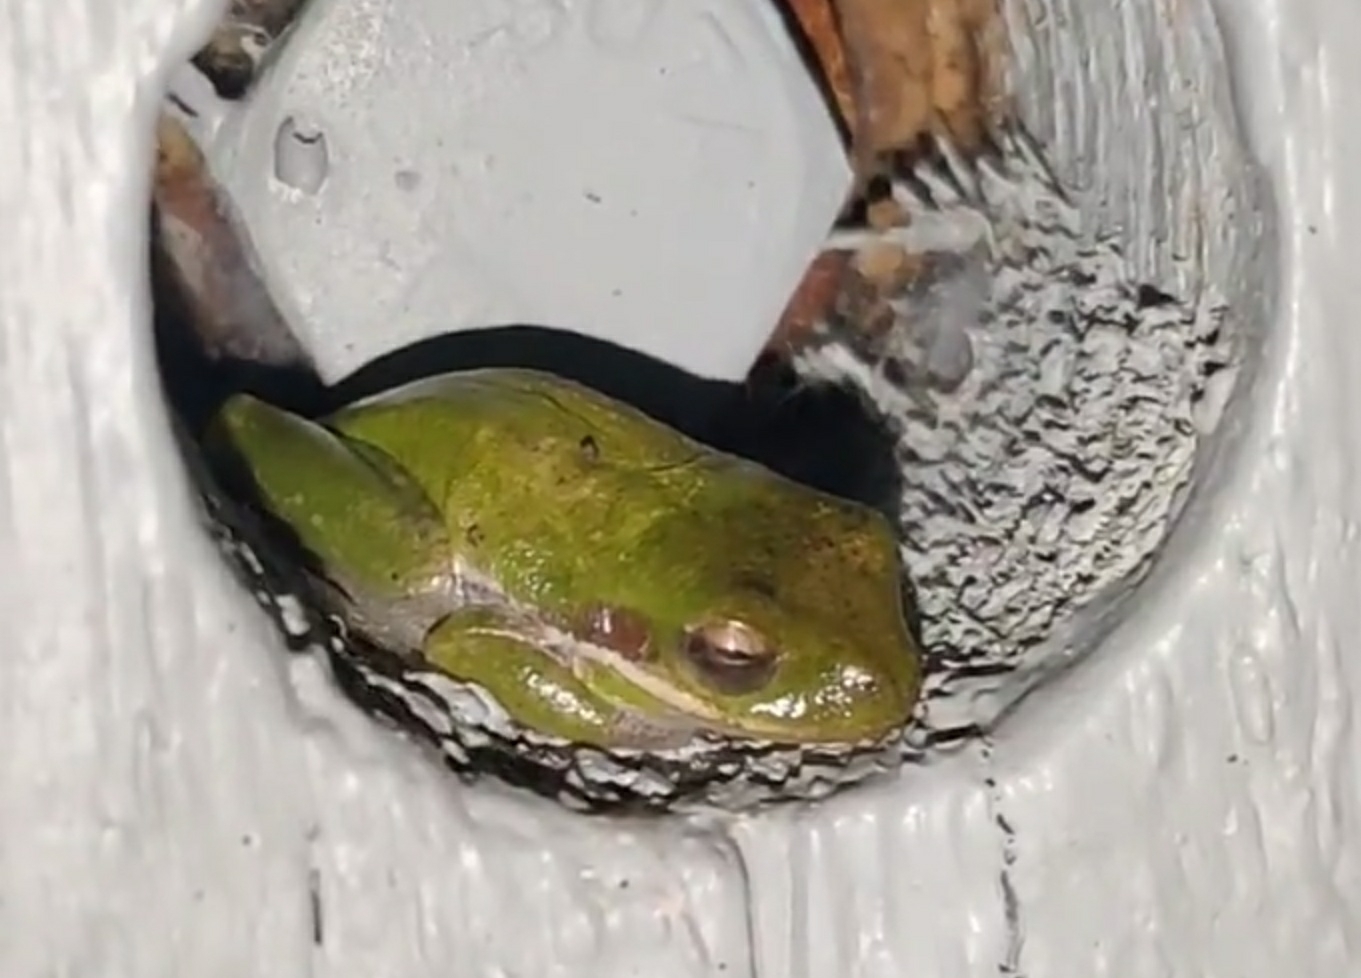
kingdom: Animalia
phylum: Chordata
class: Amphibia
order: Anura
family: Hylidae
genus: Dryophytes
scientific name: Dryophytes squirellus
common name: Squirrel treefrog
